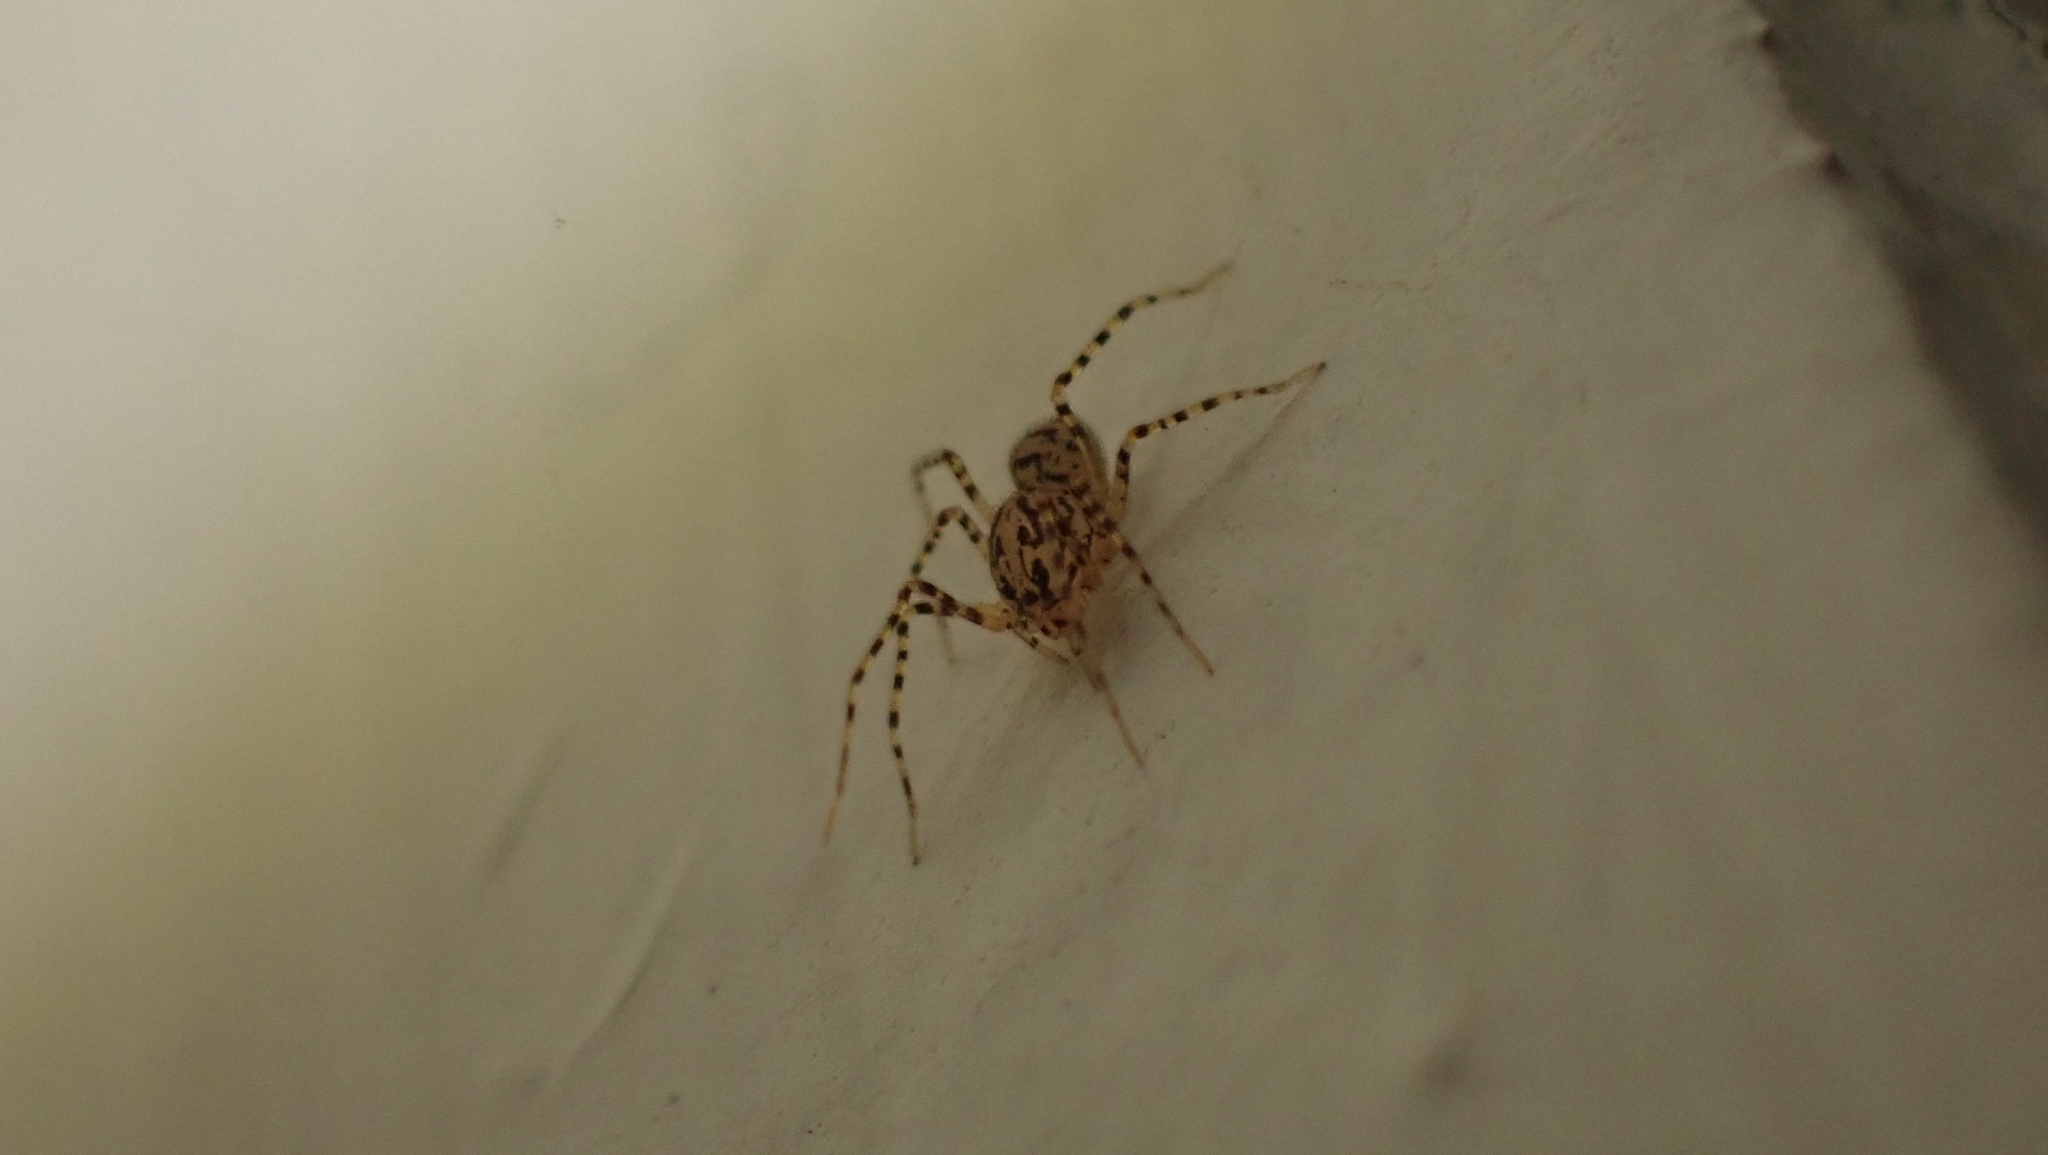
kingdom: Animalia
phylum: Arthropoda
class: Arachnida
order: Araneae
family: Scytodidae
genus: Scytodes
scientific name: Scytodes thoracica
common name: Spitting spider
